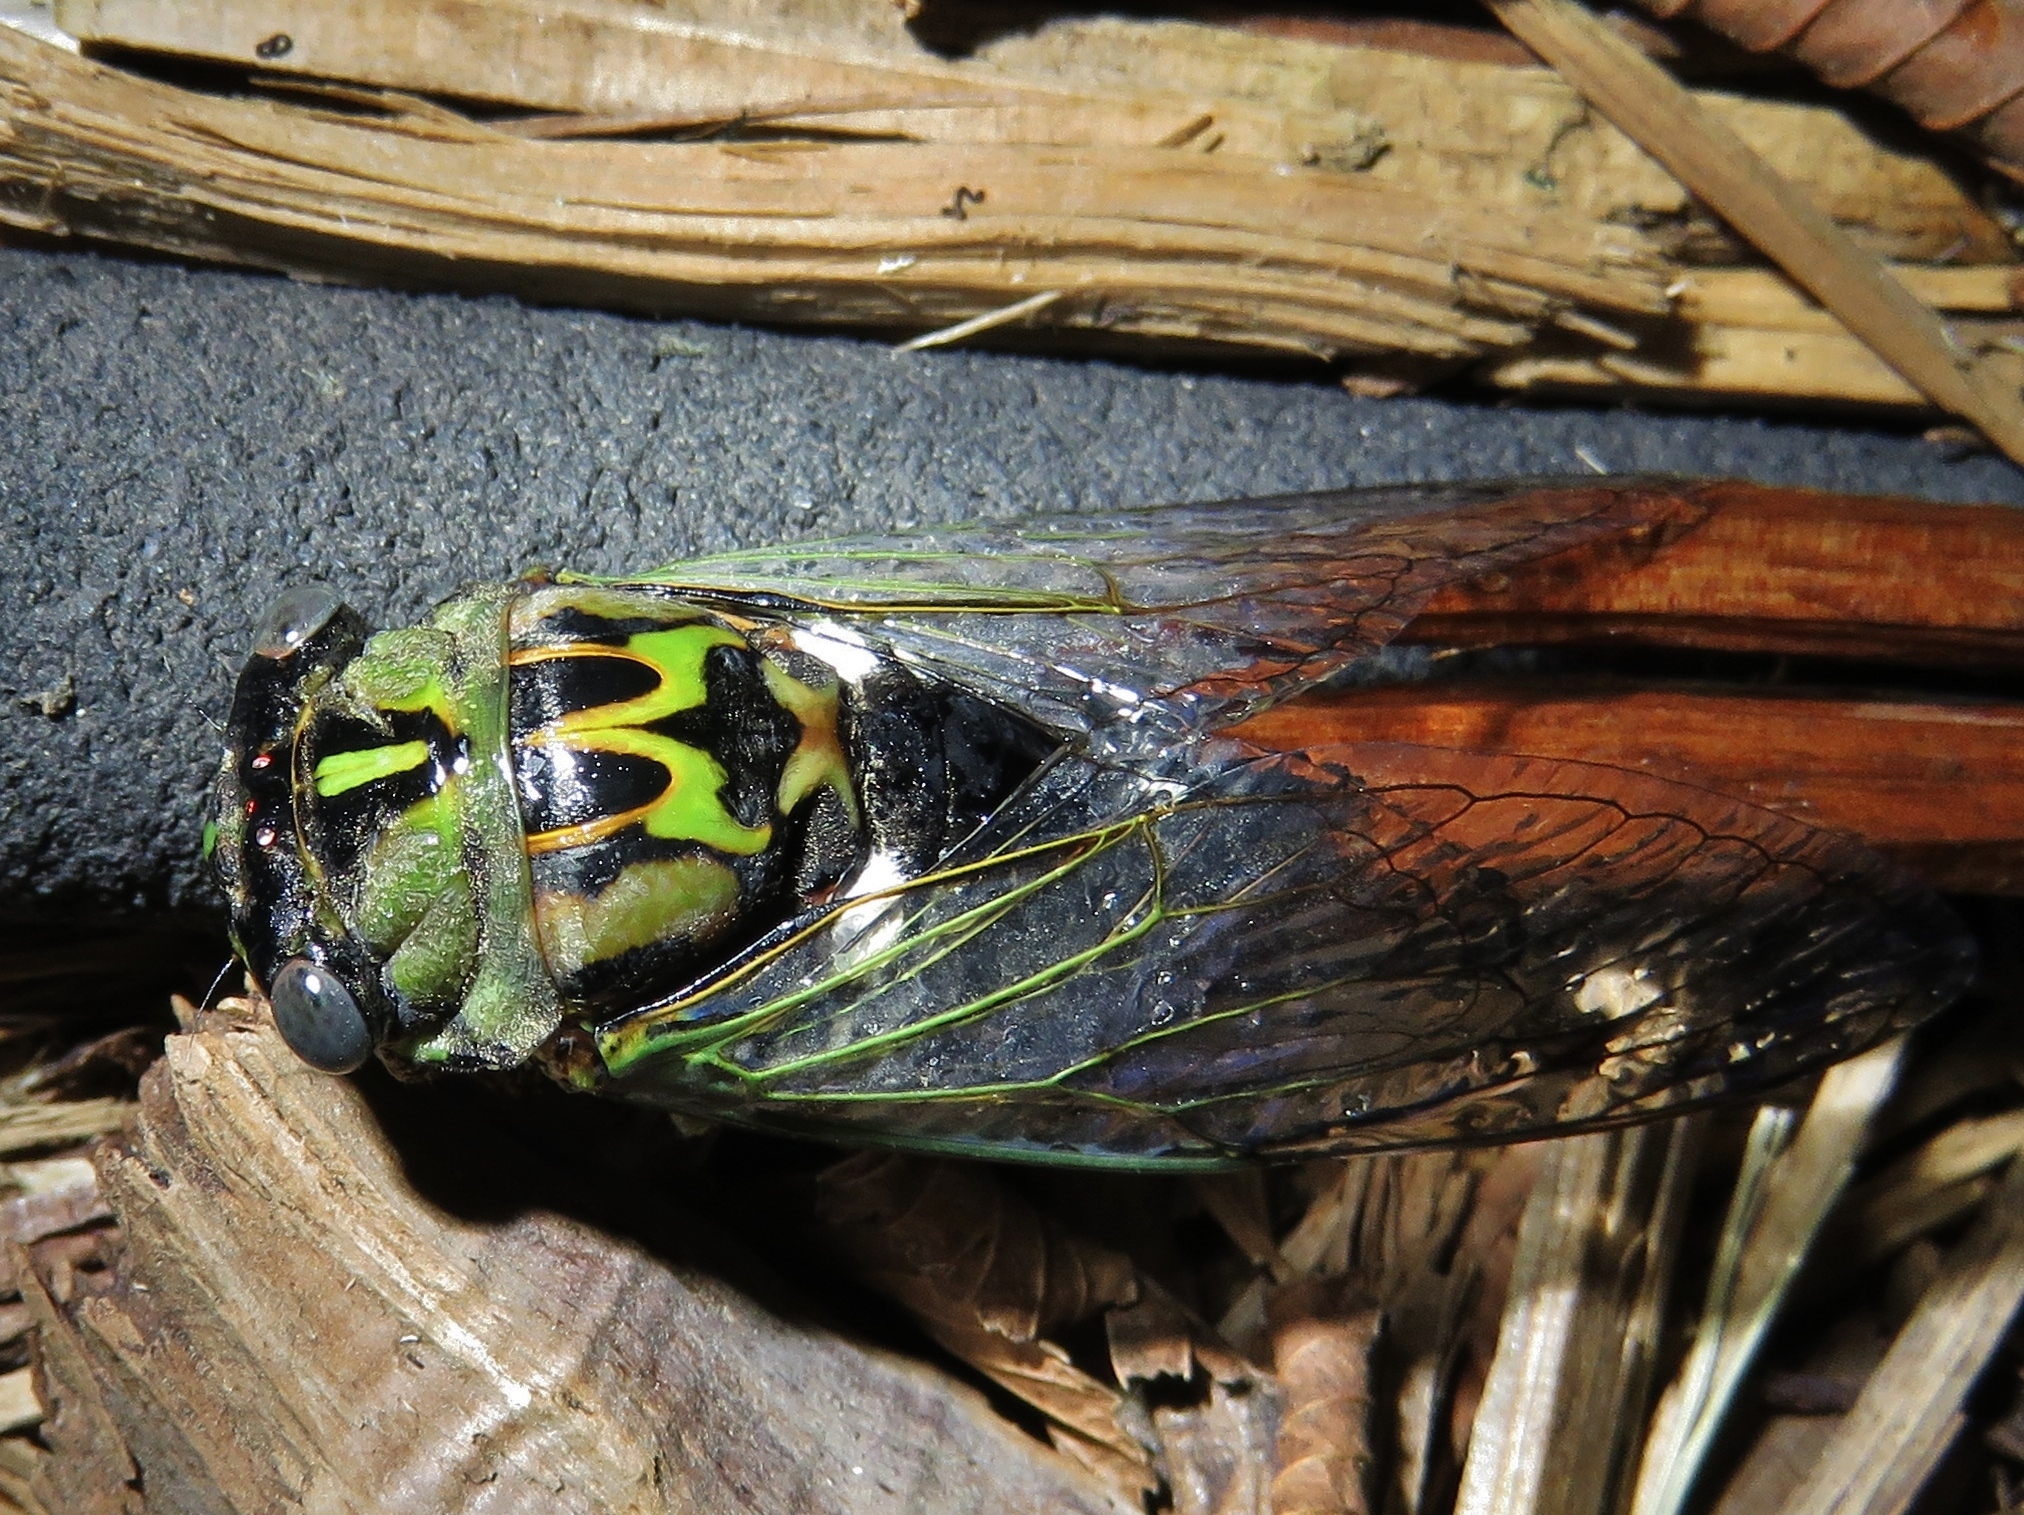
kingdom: Animalia
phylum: Arthropoda
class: Insecta
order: Hemiptera
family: Cicadidae
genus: Neotibicen
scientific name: Neotibicen pruinosus
